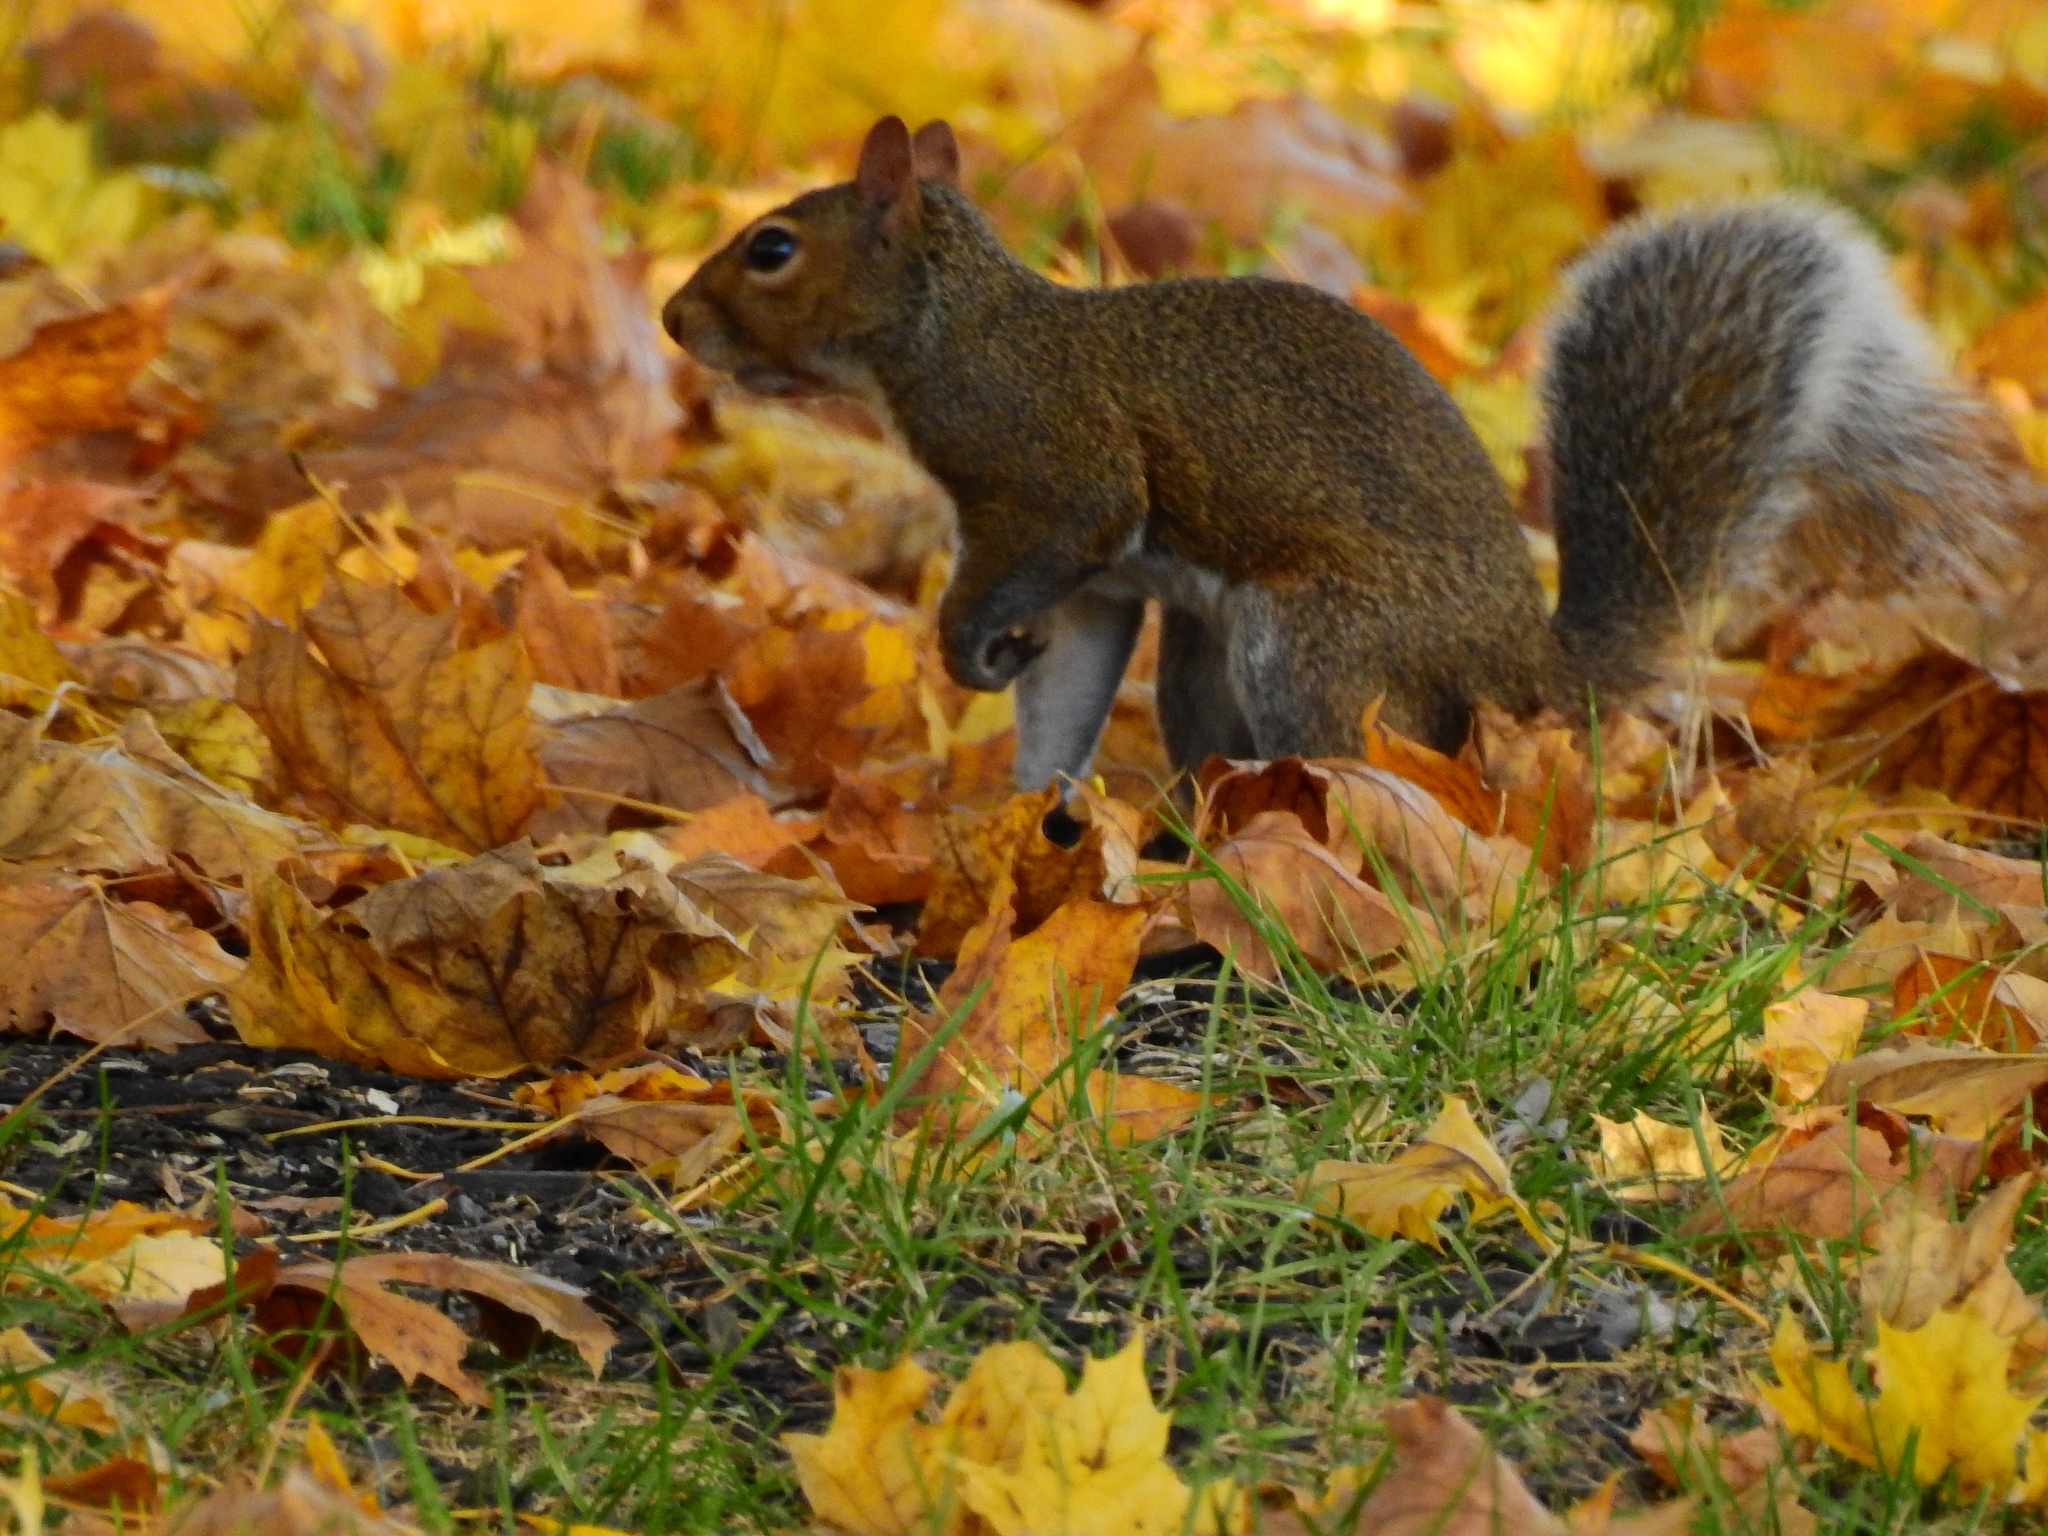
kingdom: Animalia
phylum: Chordata
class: Mammalia
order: Rodentia
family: Sciuridae
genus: Sciurus
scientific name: Sciurus carolinensis
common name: Eastern gray squirrel
